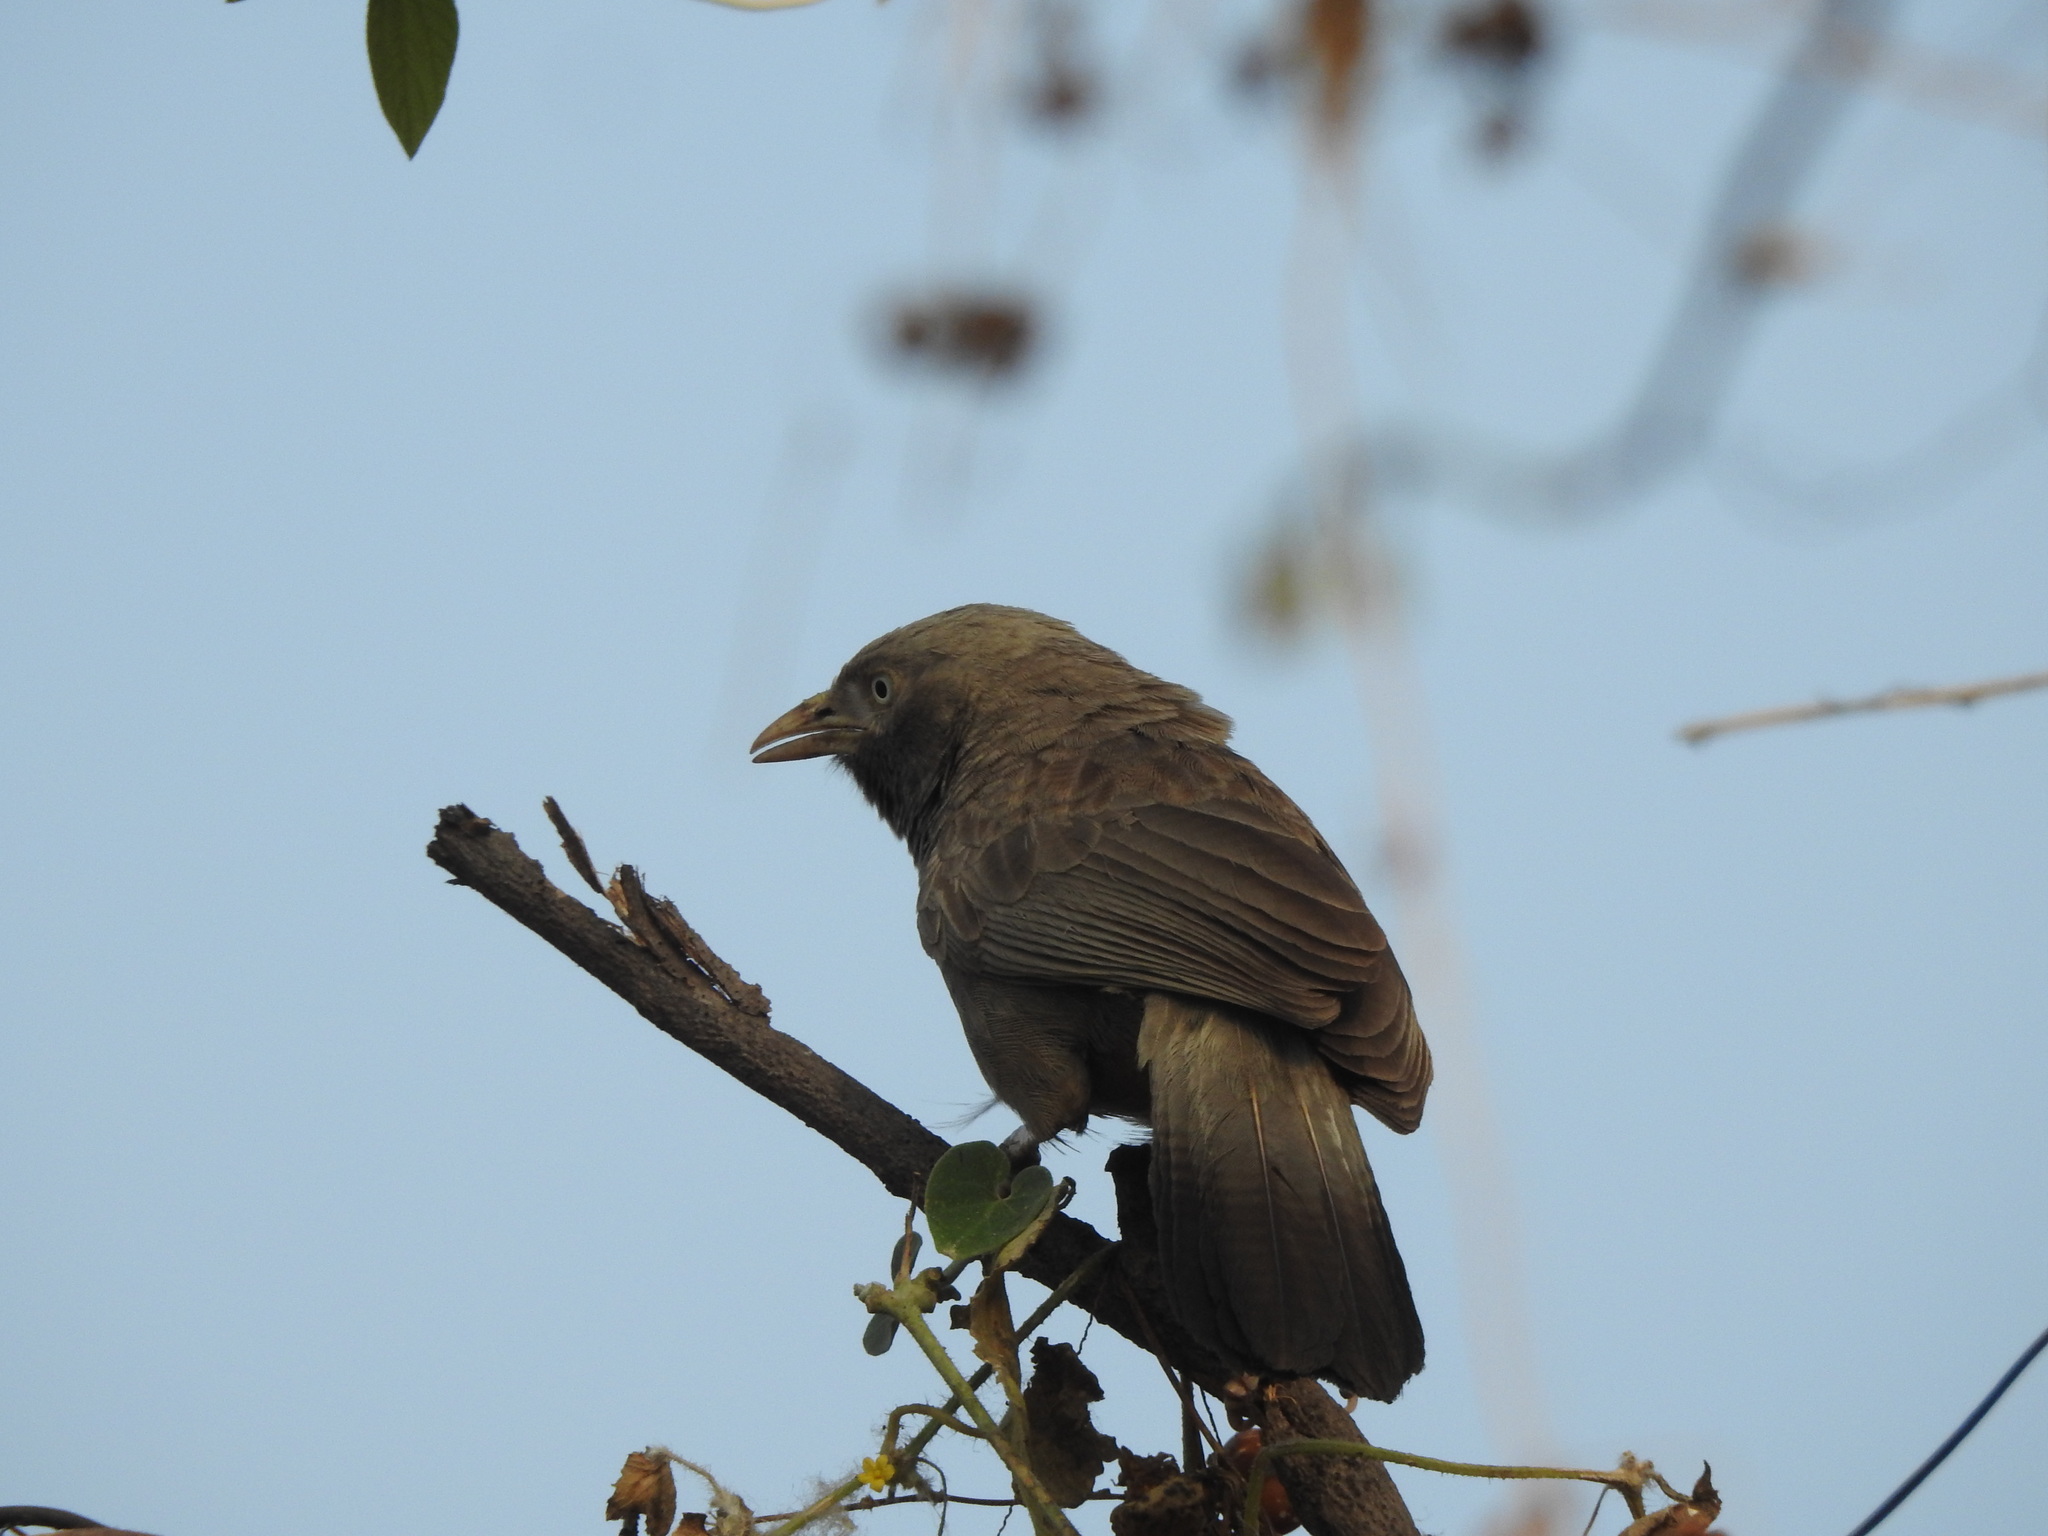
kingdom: Animalia
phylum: Chordata
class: Aves
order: Passeriformes
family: Leiothrichidae
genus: Turdoides
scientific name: Turdoides affinis
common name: Yellow-billed babbler
